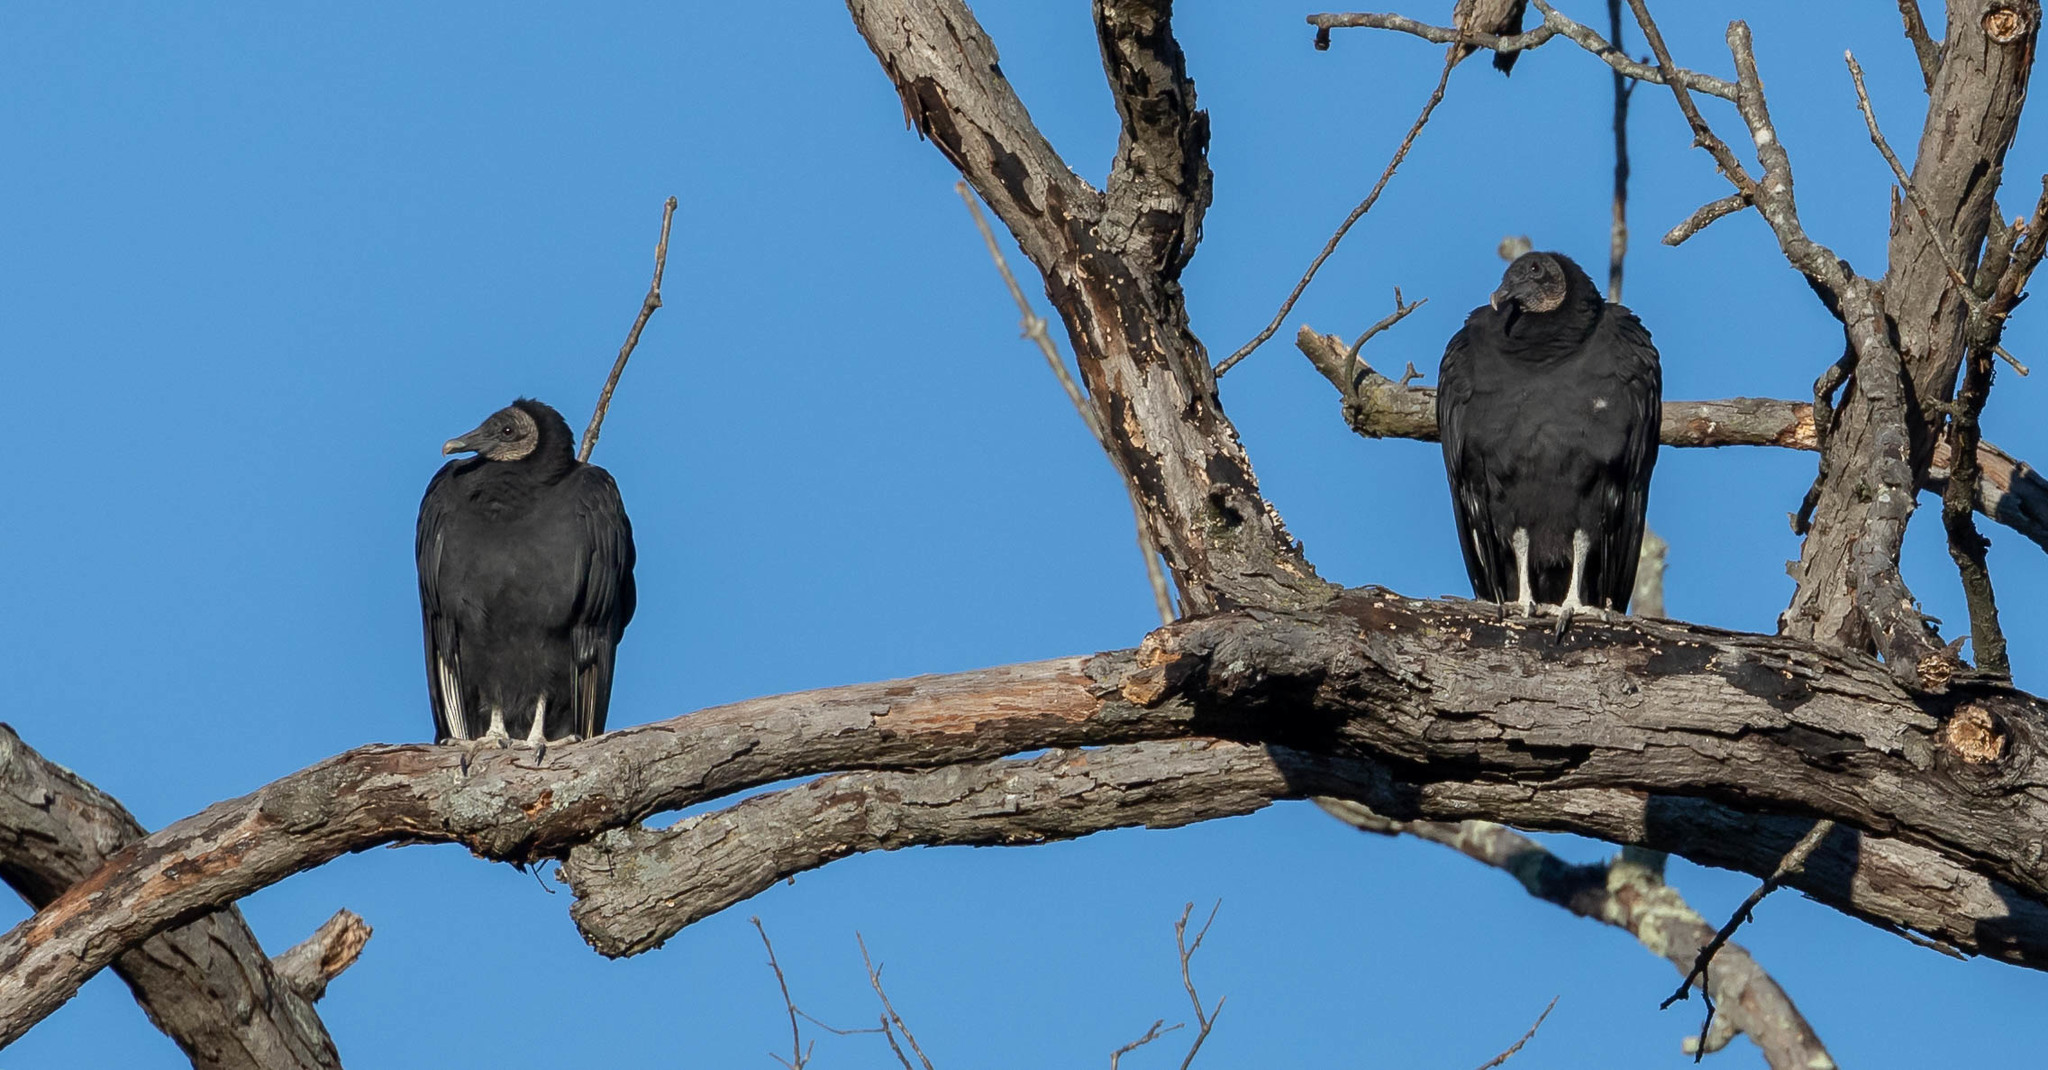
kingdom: Animalia
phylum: Chordata
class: Aves
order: Accipitriformes
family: Cathartidae
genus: Coragyps
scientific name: Coragyps atratus
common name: Black vulture
